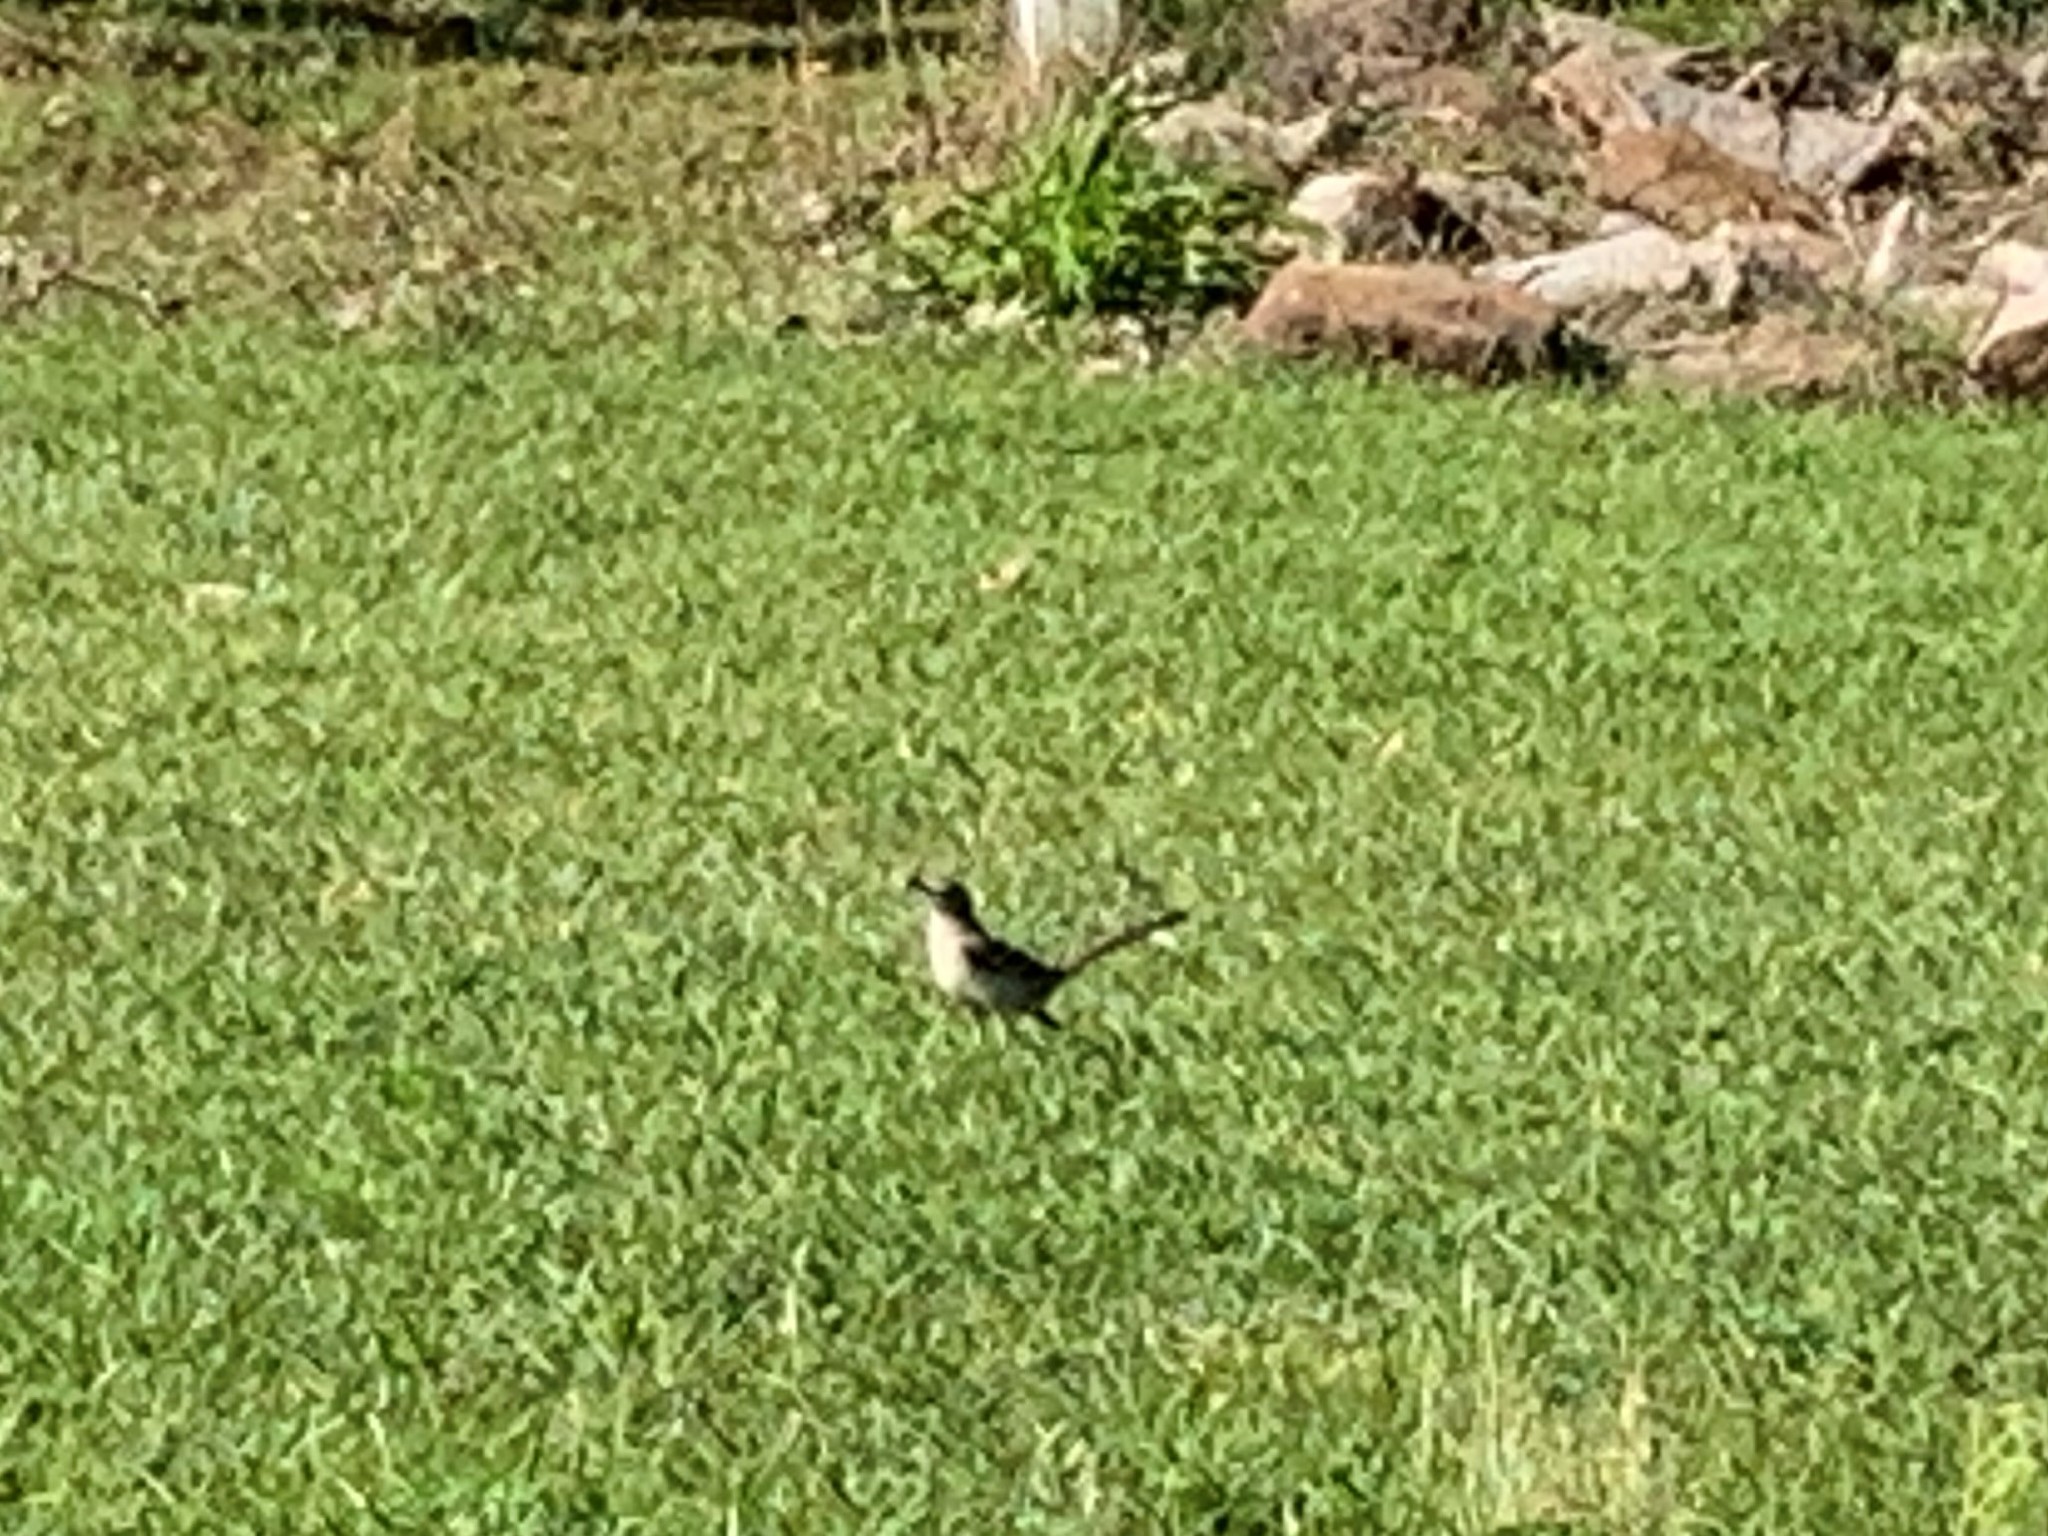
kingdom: Animalia
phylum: Chordata
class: Aves
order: Passeriformes
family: Mimidae
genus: Mimus
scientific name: Mimus polyglottos
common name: Northern mockingbird
